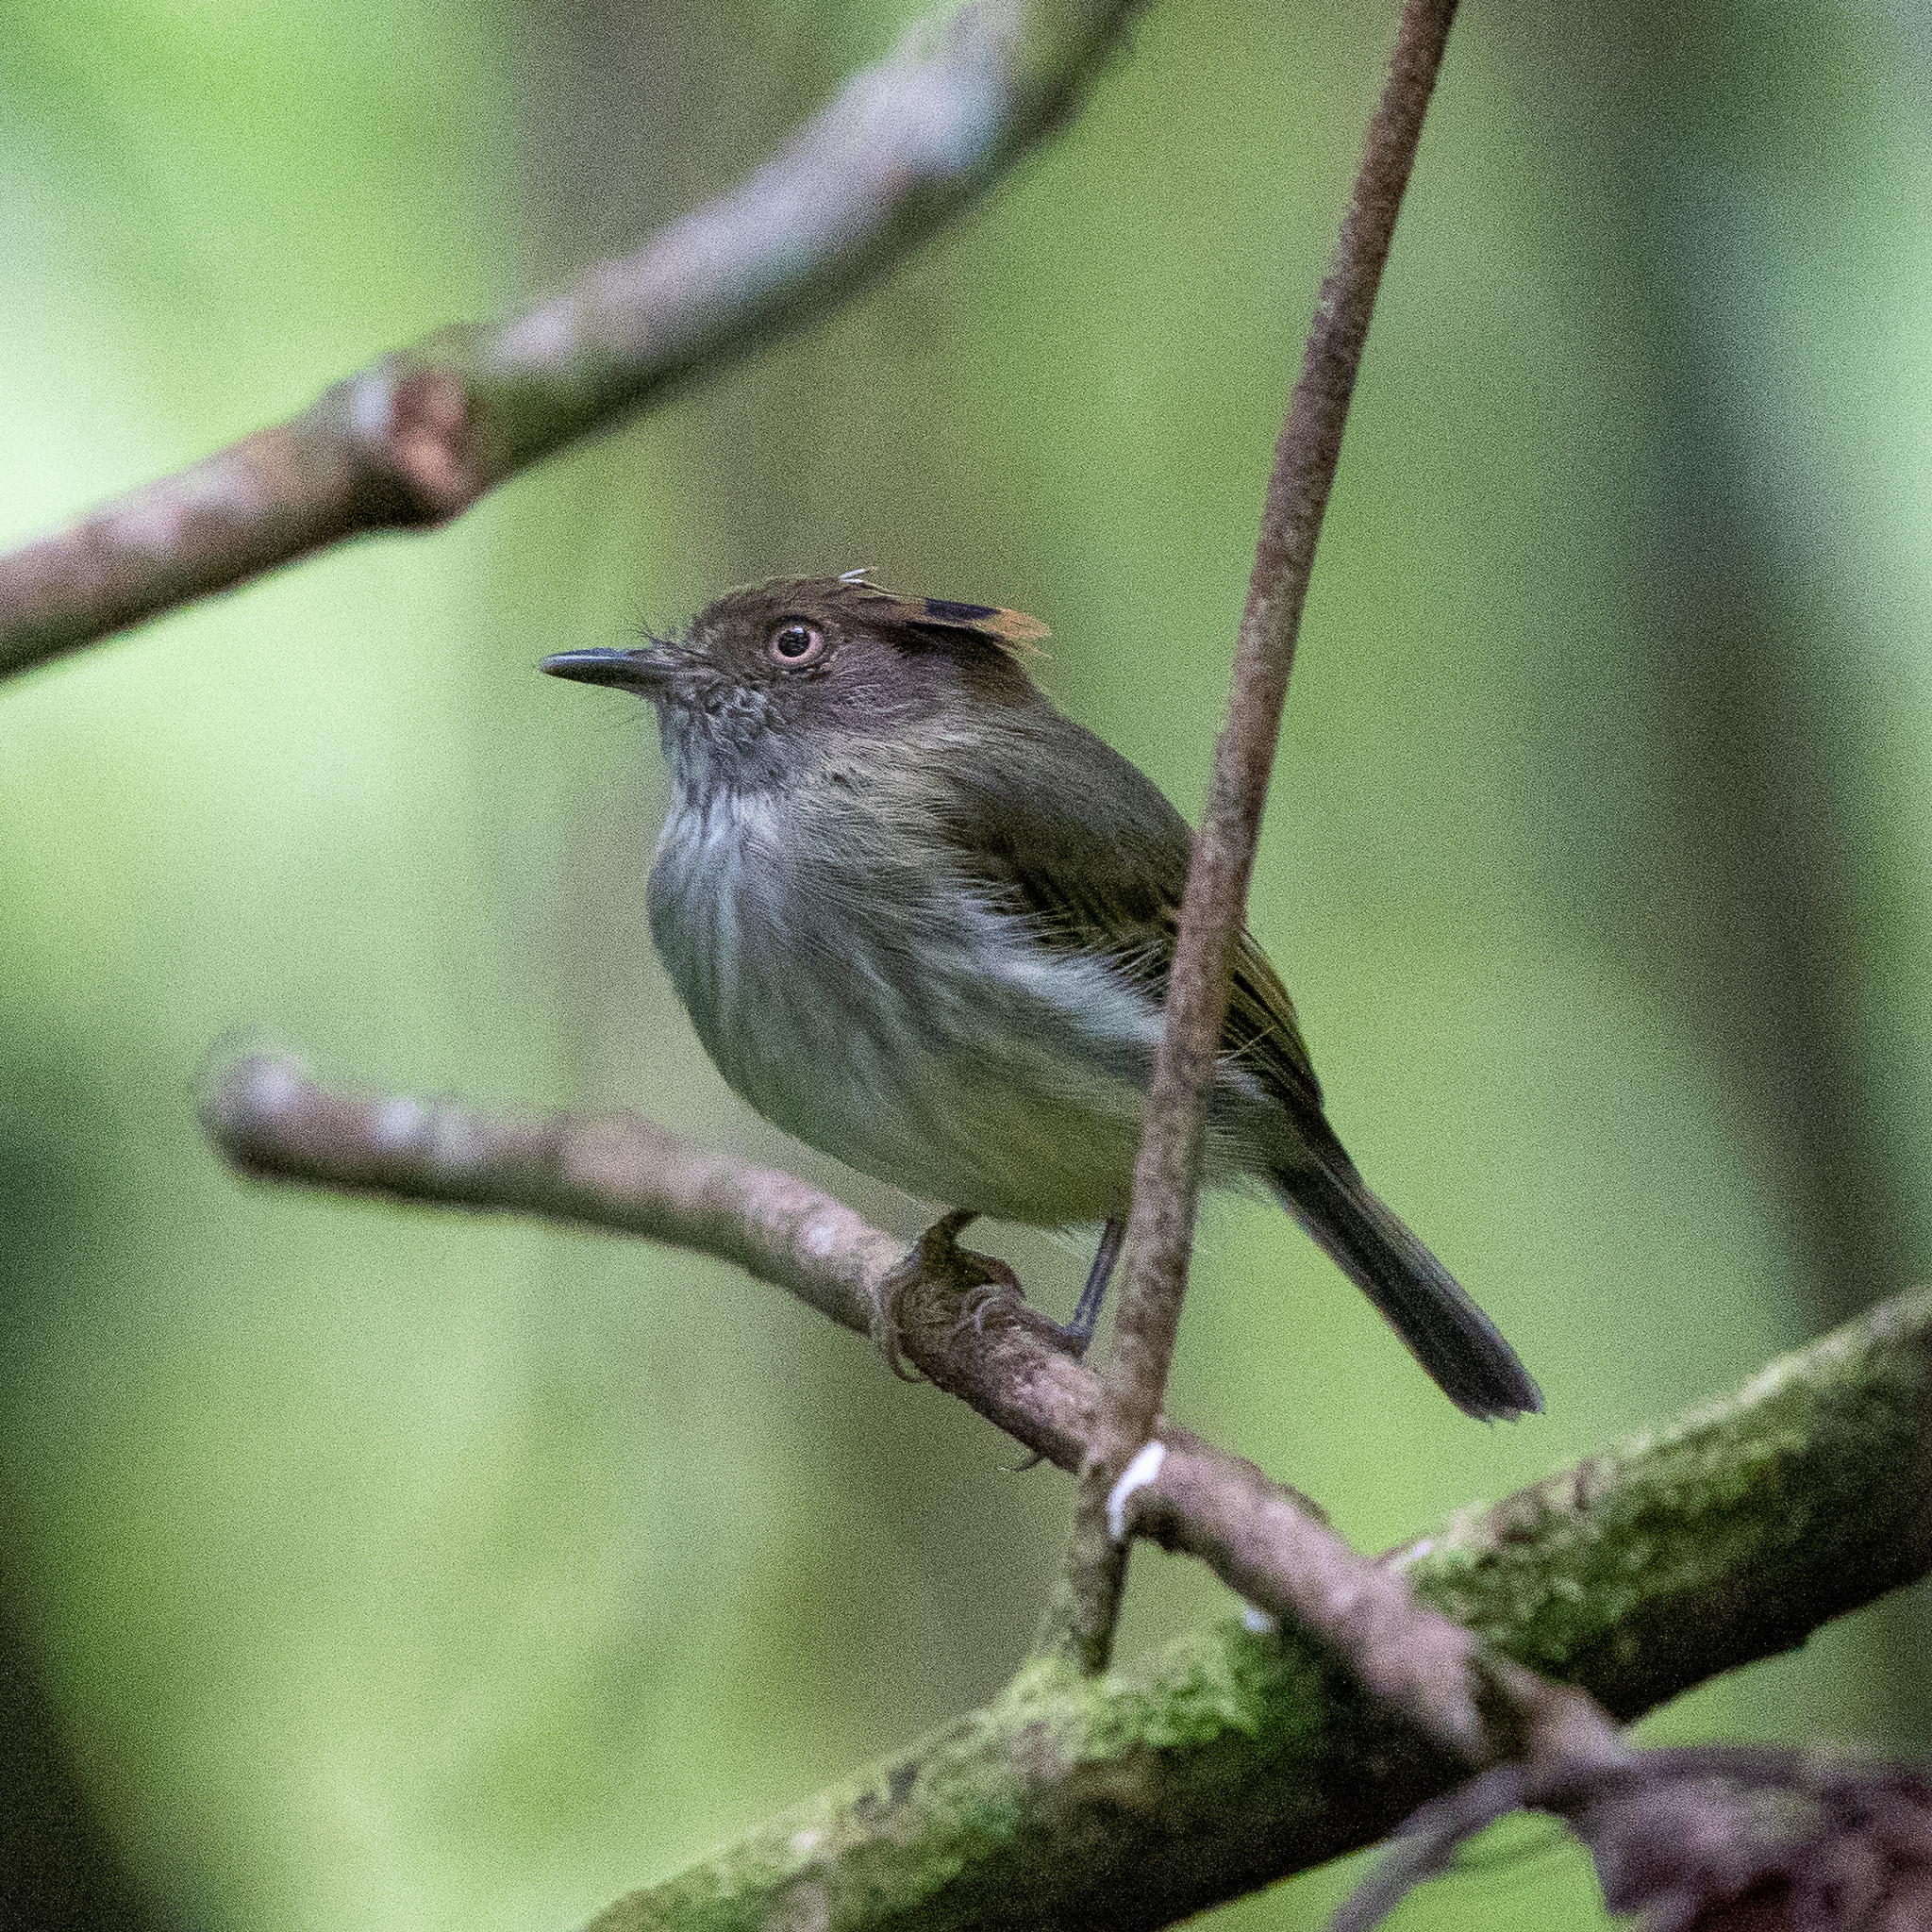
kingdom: Animalia
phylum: Chordata
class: Aves
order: Passeriformes
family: Tyrannidae
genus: Lophotriccus
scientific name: Lophotriccus pileatus
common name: Scale-crested pygmy-tyrant
